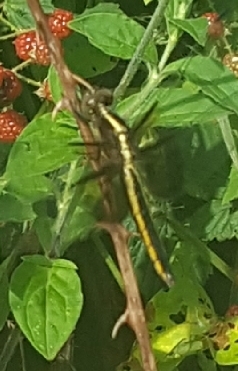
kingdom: Animalia
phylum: Arthropoda
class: Insecta
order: Odonata
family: Libellulidae
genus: Libellula
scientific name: Libellula luctuosa
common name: Widow skimmer
